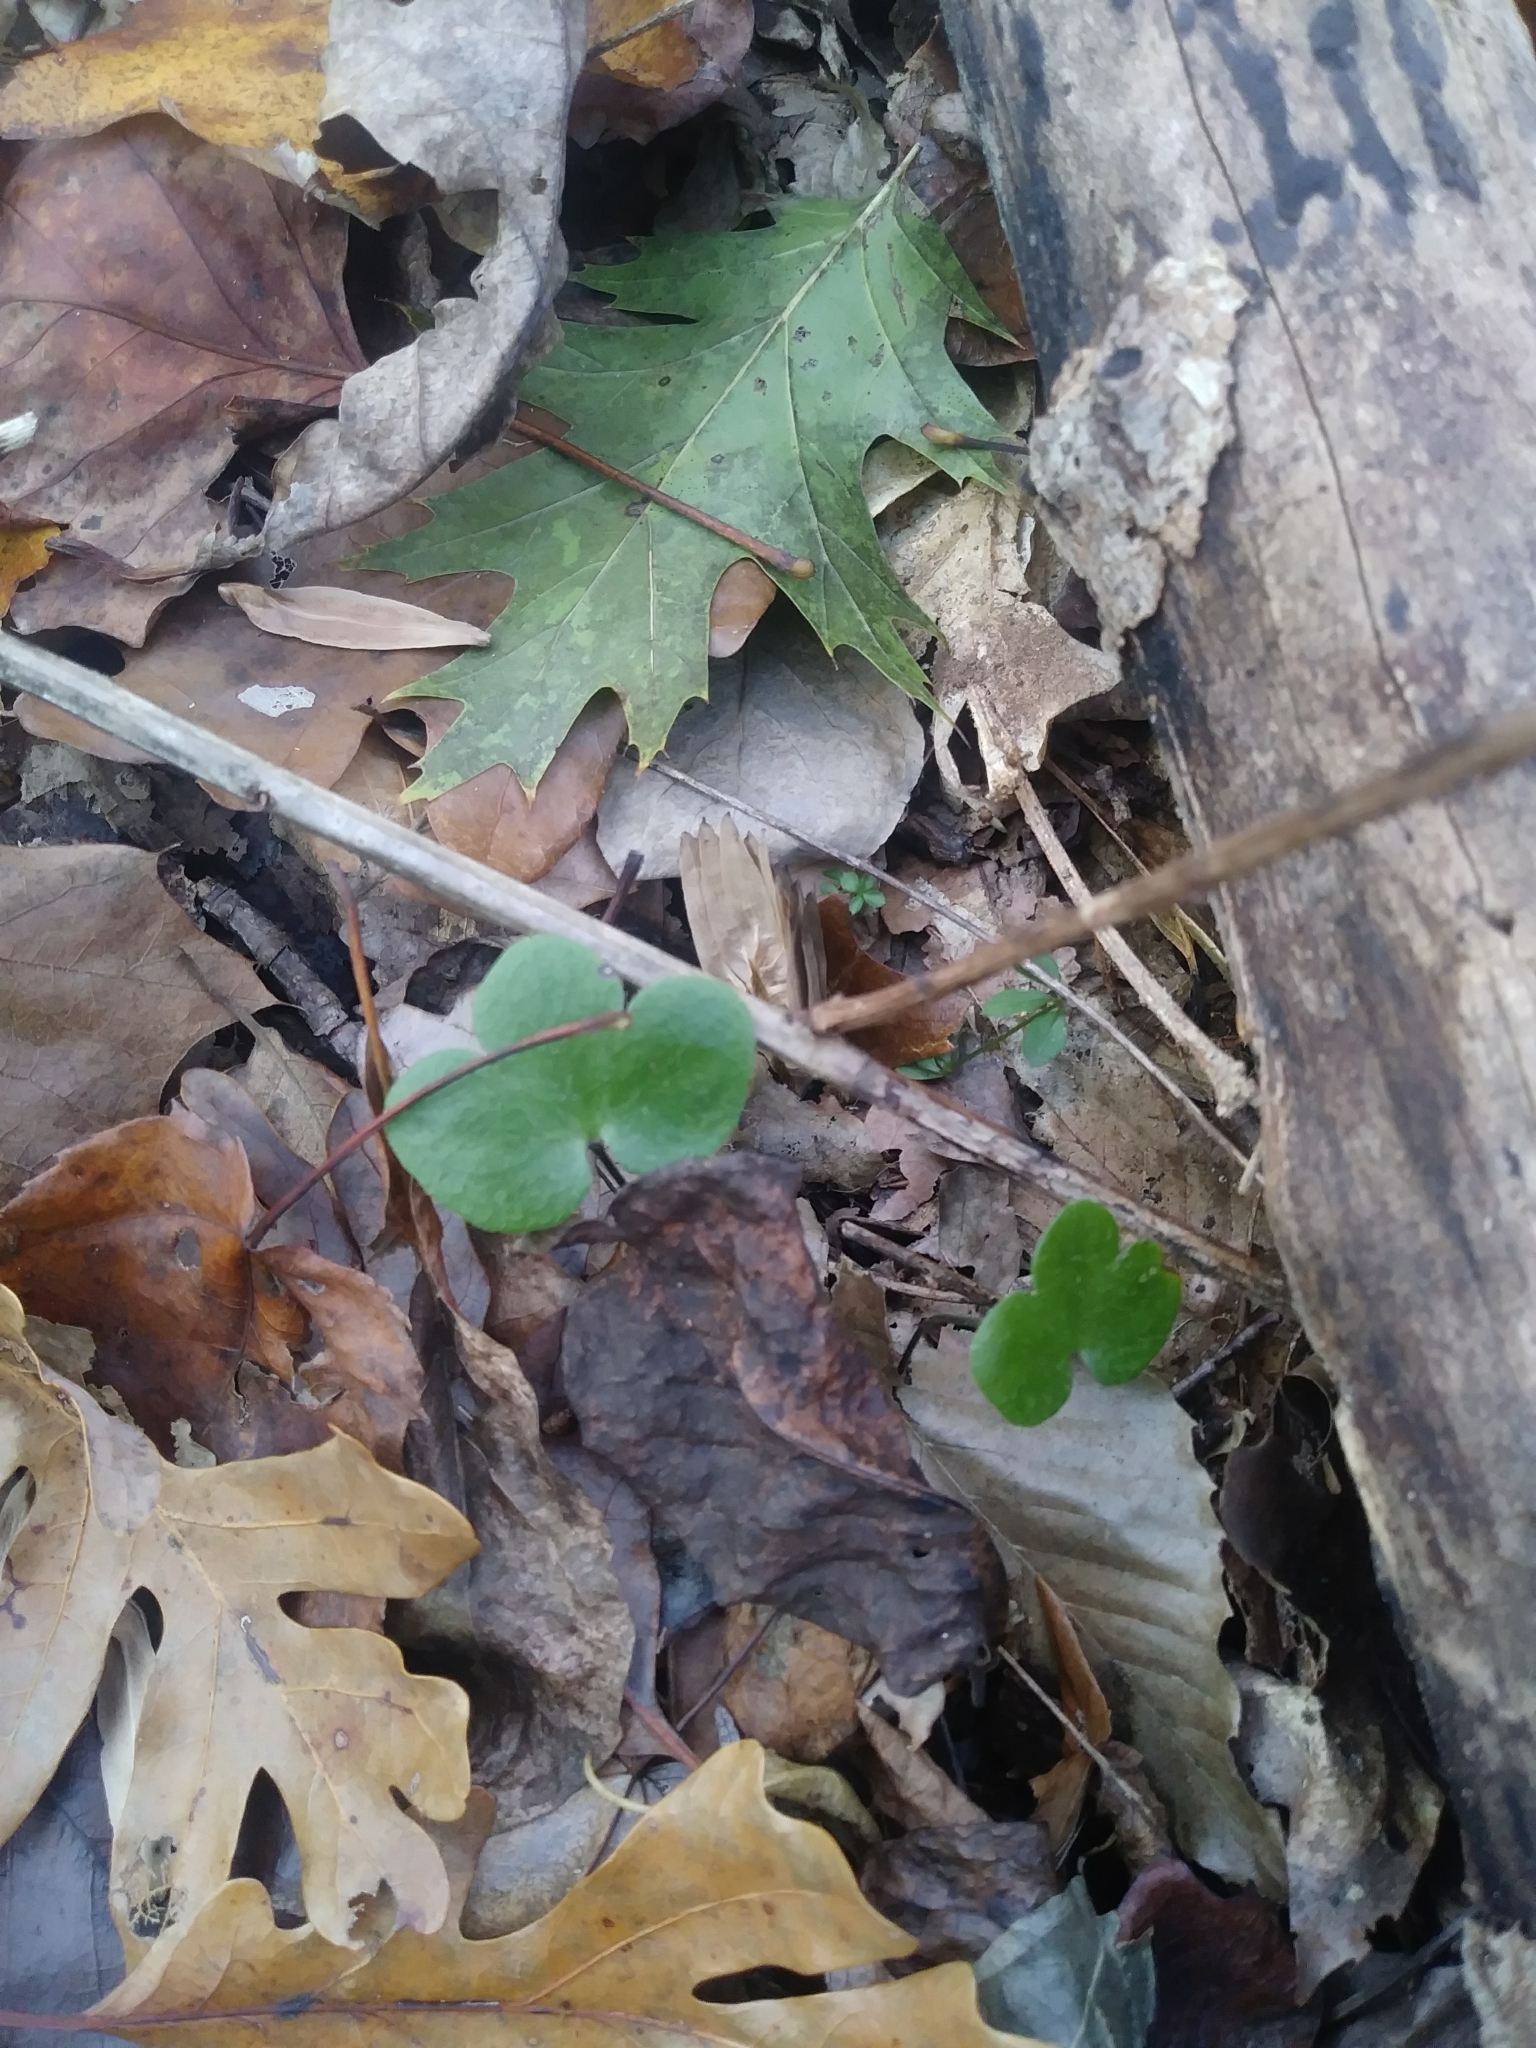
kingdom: Plantae
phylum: Tracheophyta
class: Magnoliopsida
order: Ranunculales
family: Ranunculaceae
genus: Hepatica
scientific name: Hepatica americana
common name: American hepatica
